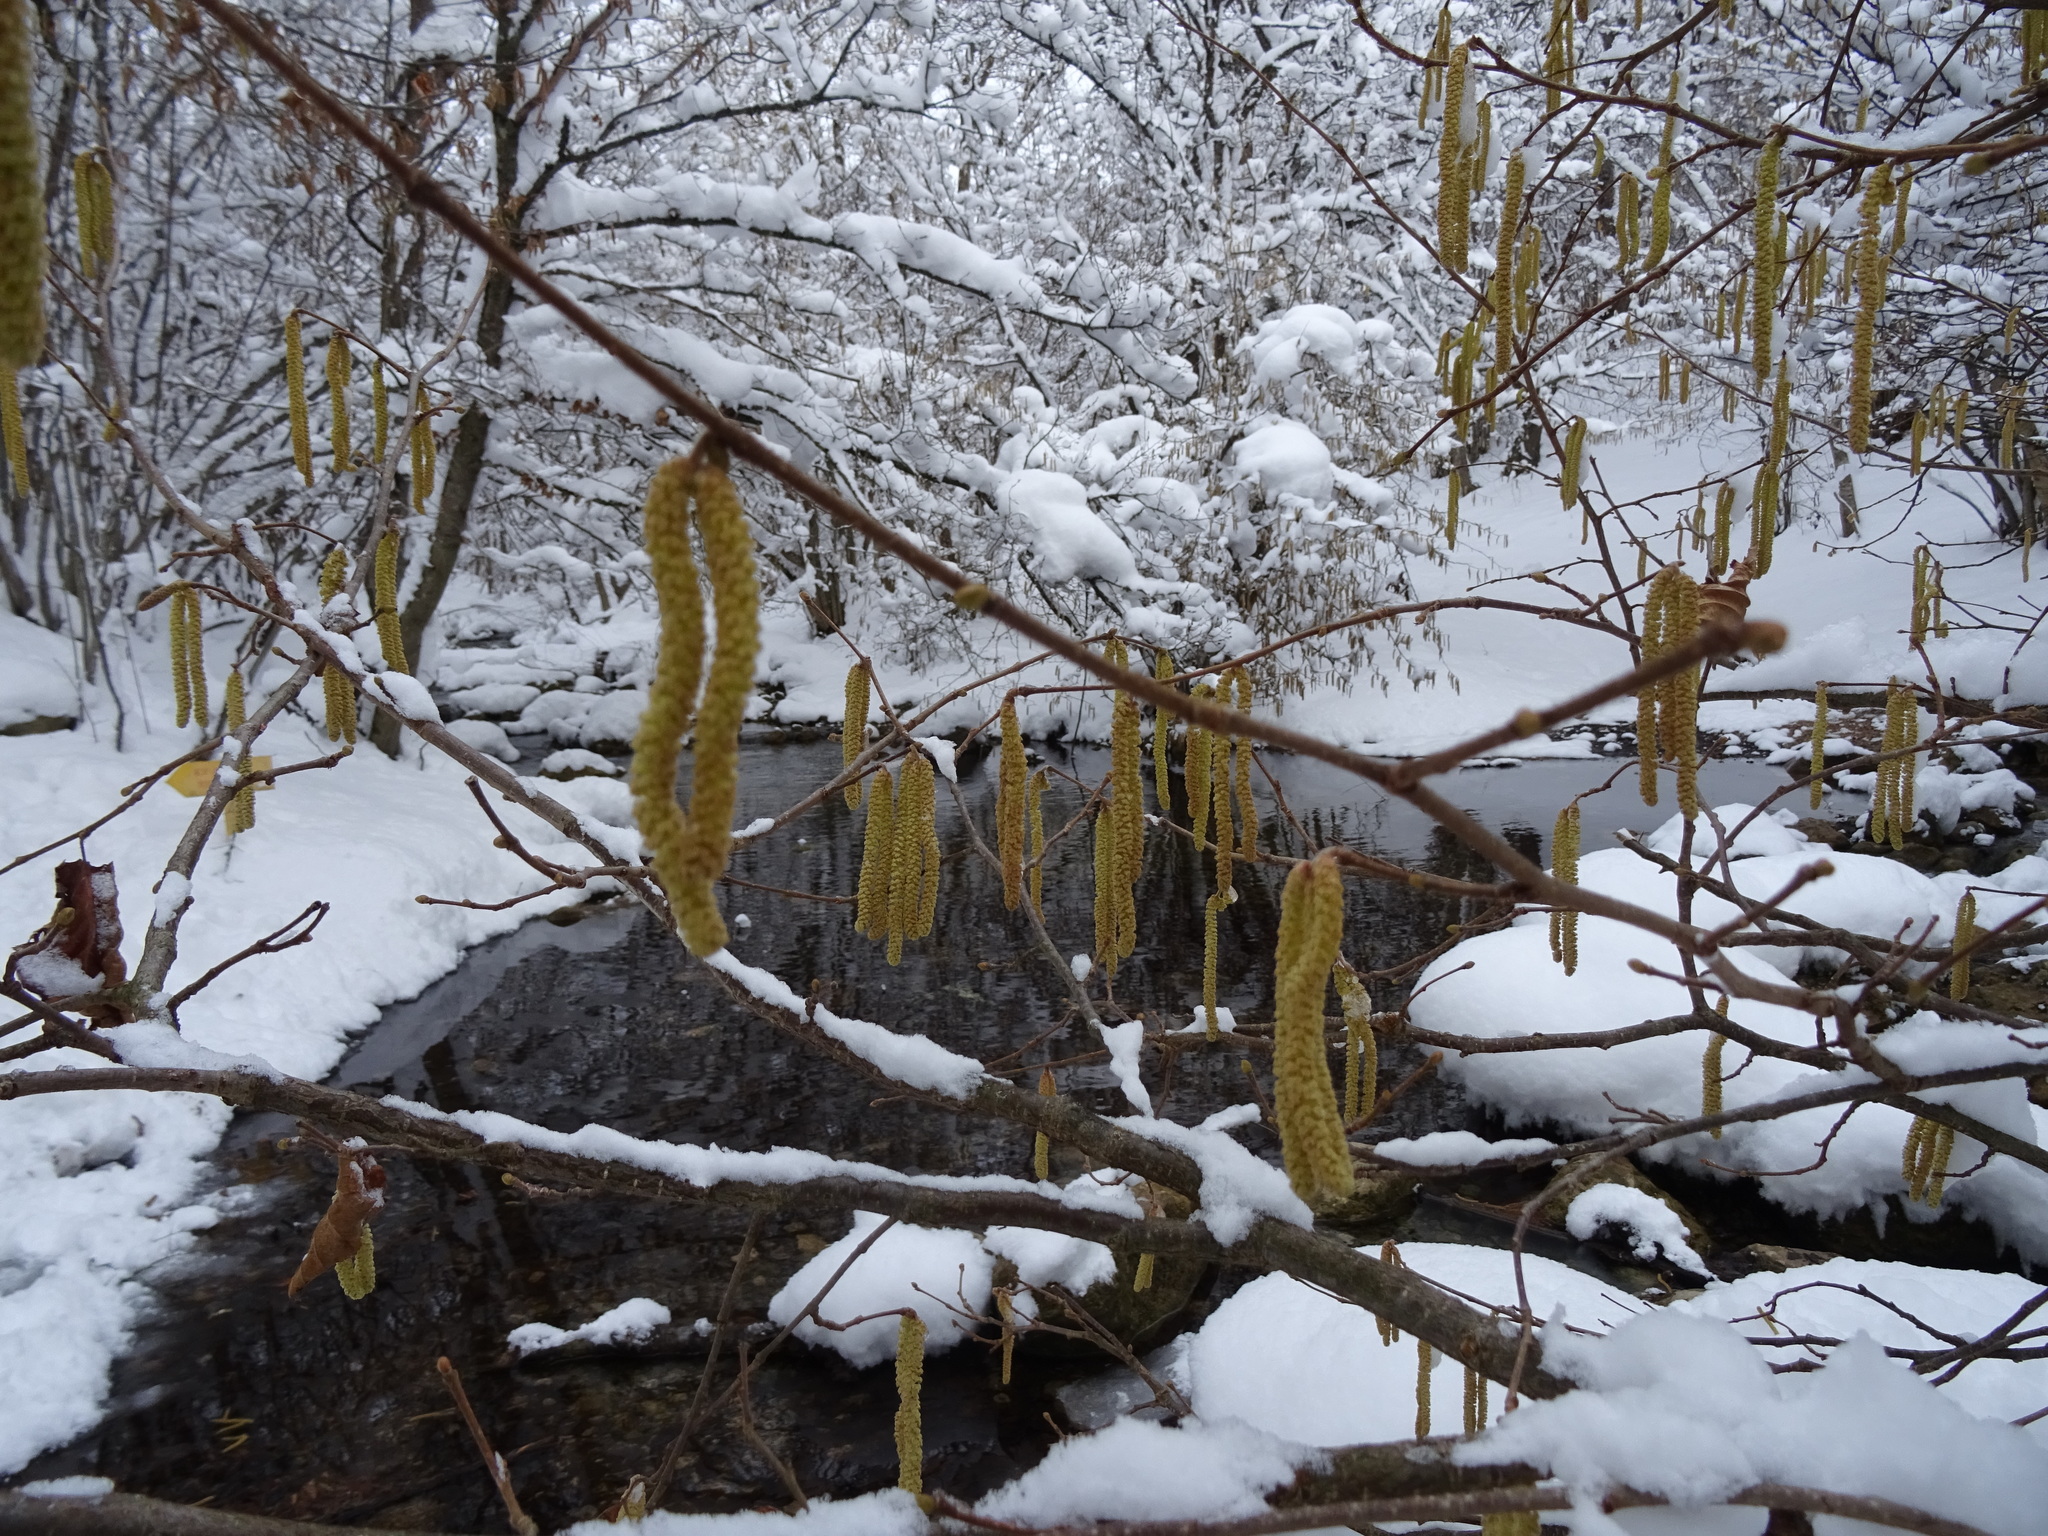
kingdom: Plantae
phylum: Tracheophyta
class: Magnoliopsida
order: Fagales
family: Betulaceae
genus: Corylus
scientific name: Corylus avellana
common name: European hazel
